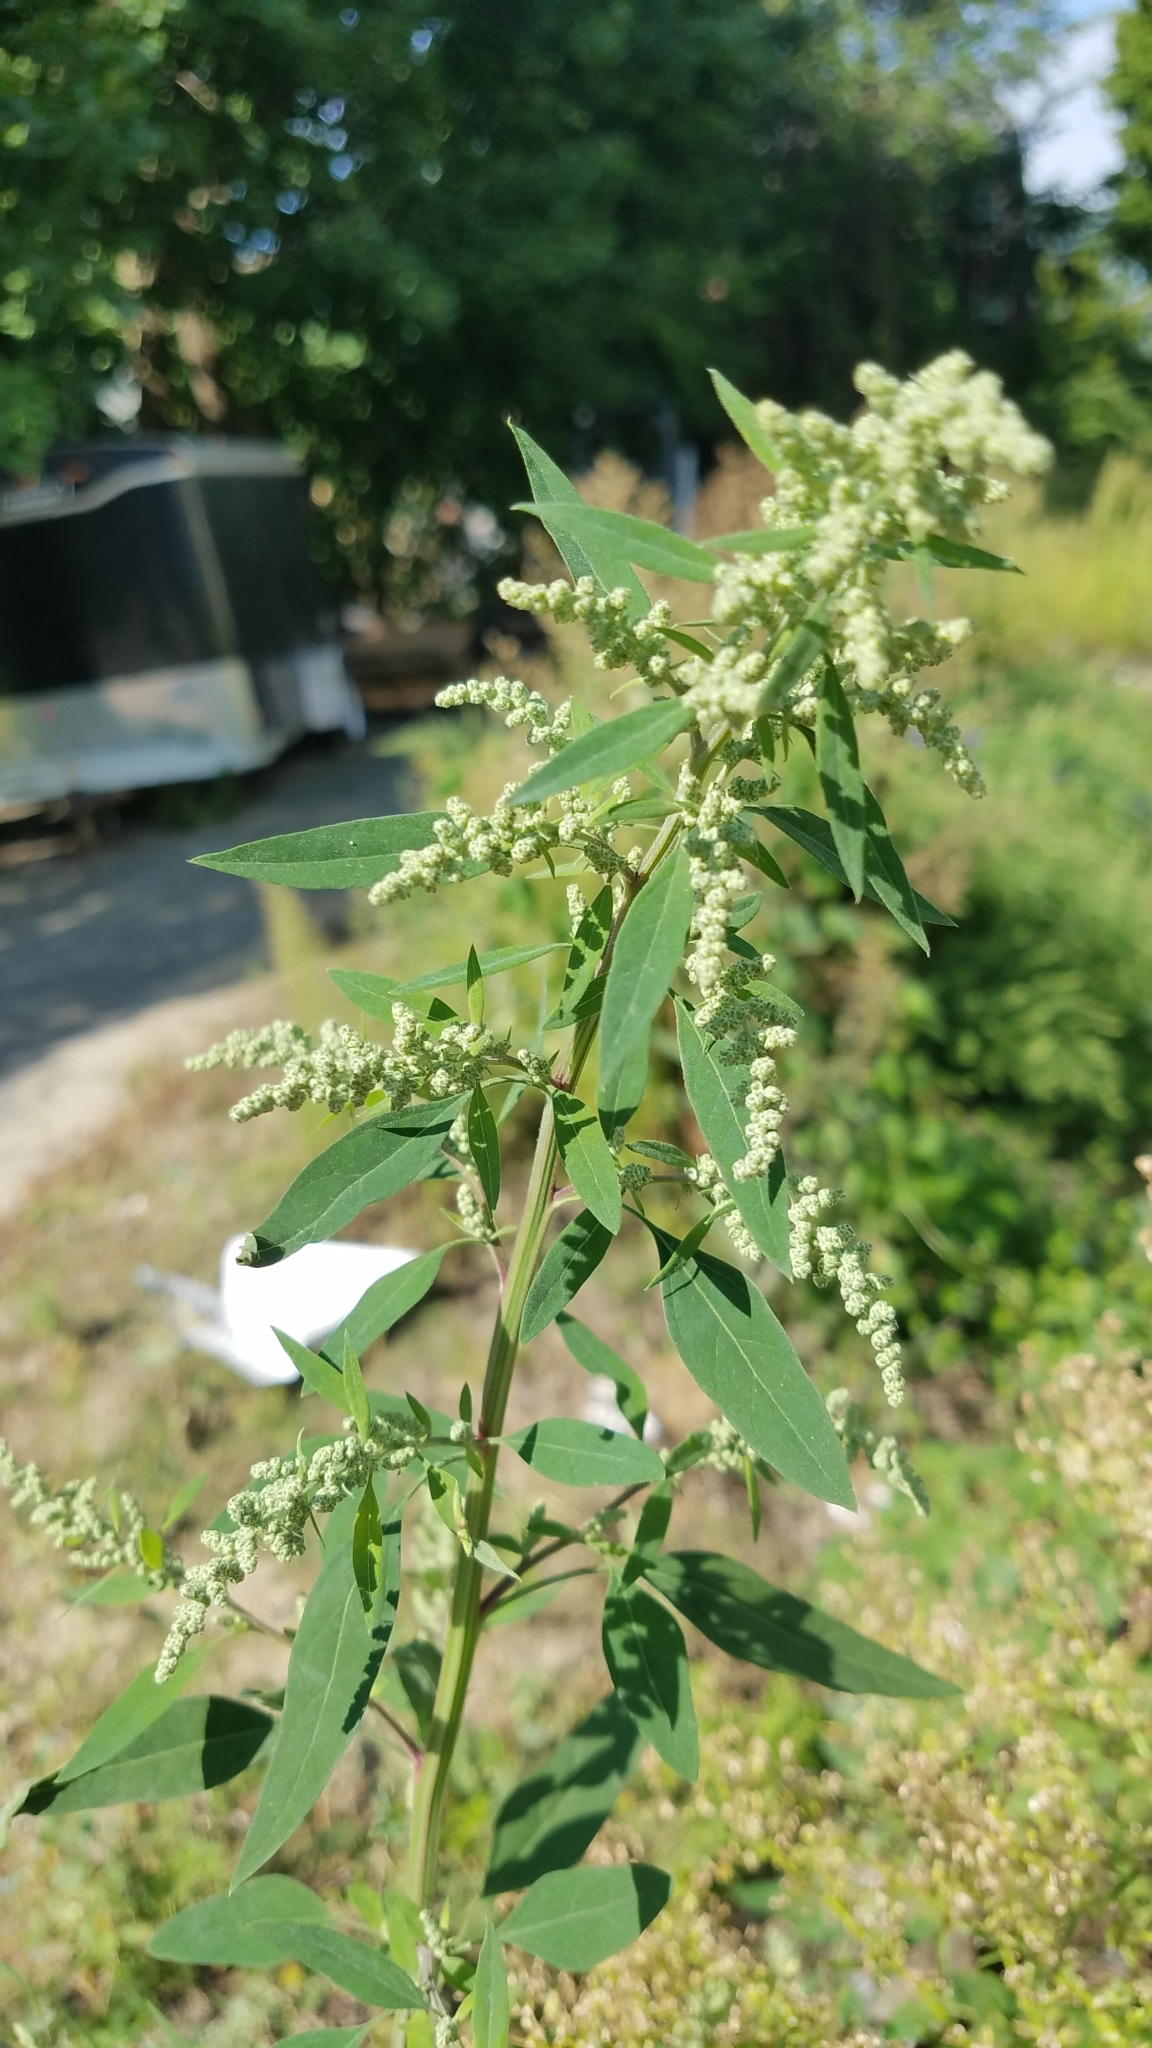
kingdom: Plantae
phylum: Tracheophyta
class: Magnoliopsida
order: Caryophyllales
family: Amaranthaceae
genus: Chenopodium
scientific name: Chenopodium album
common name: Fat-hen
